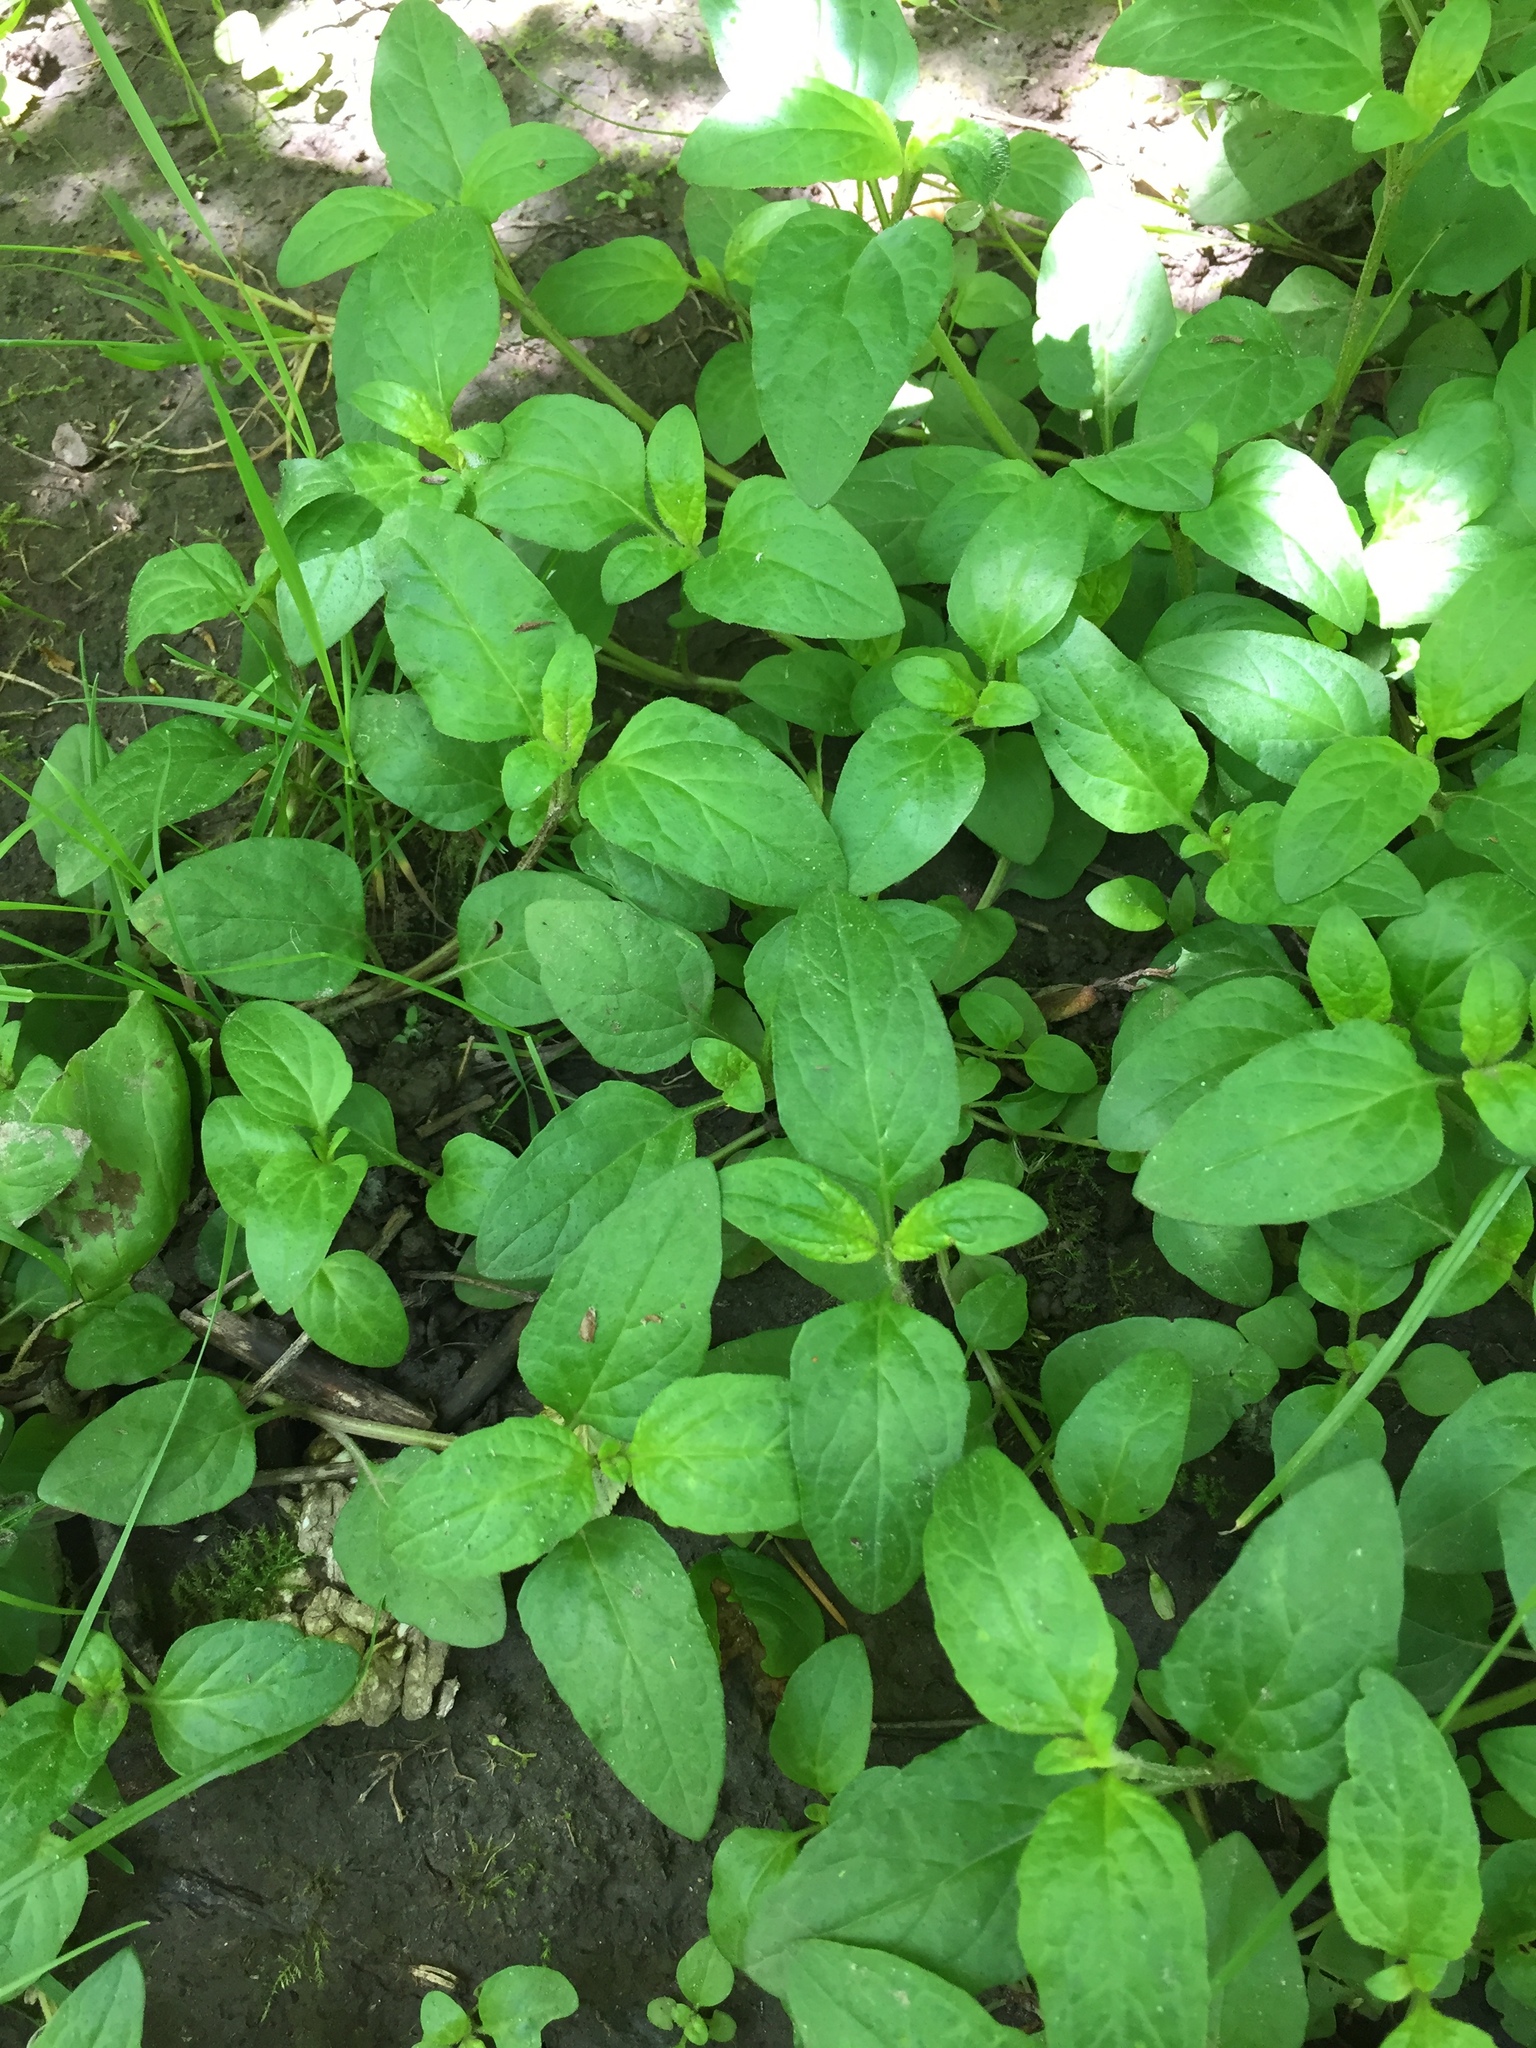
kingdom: Plantae
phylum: Tracheophyta
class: Magnoliopsida
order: Lamiales
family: Lamiaceae
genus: Prunella
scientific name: Prunella vulgaris
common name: Heal-all
